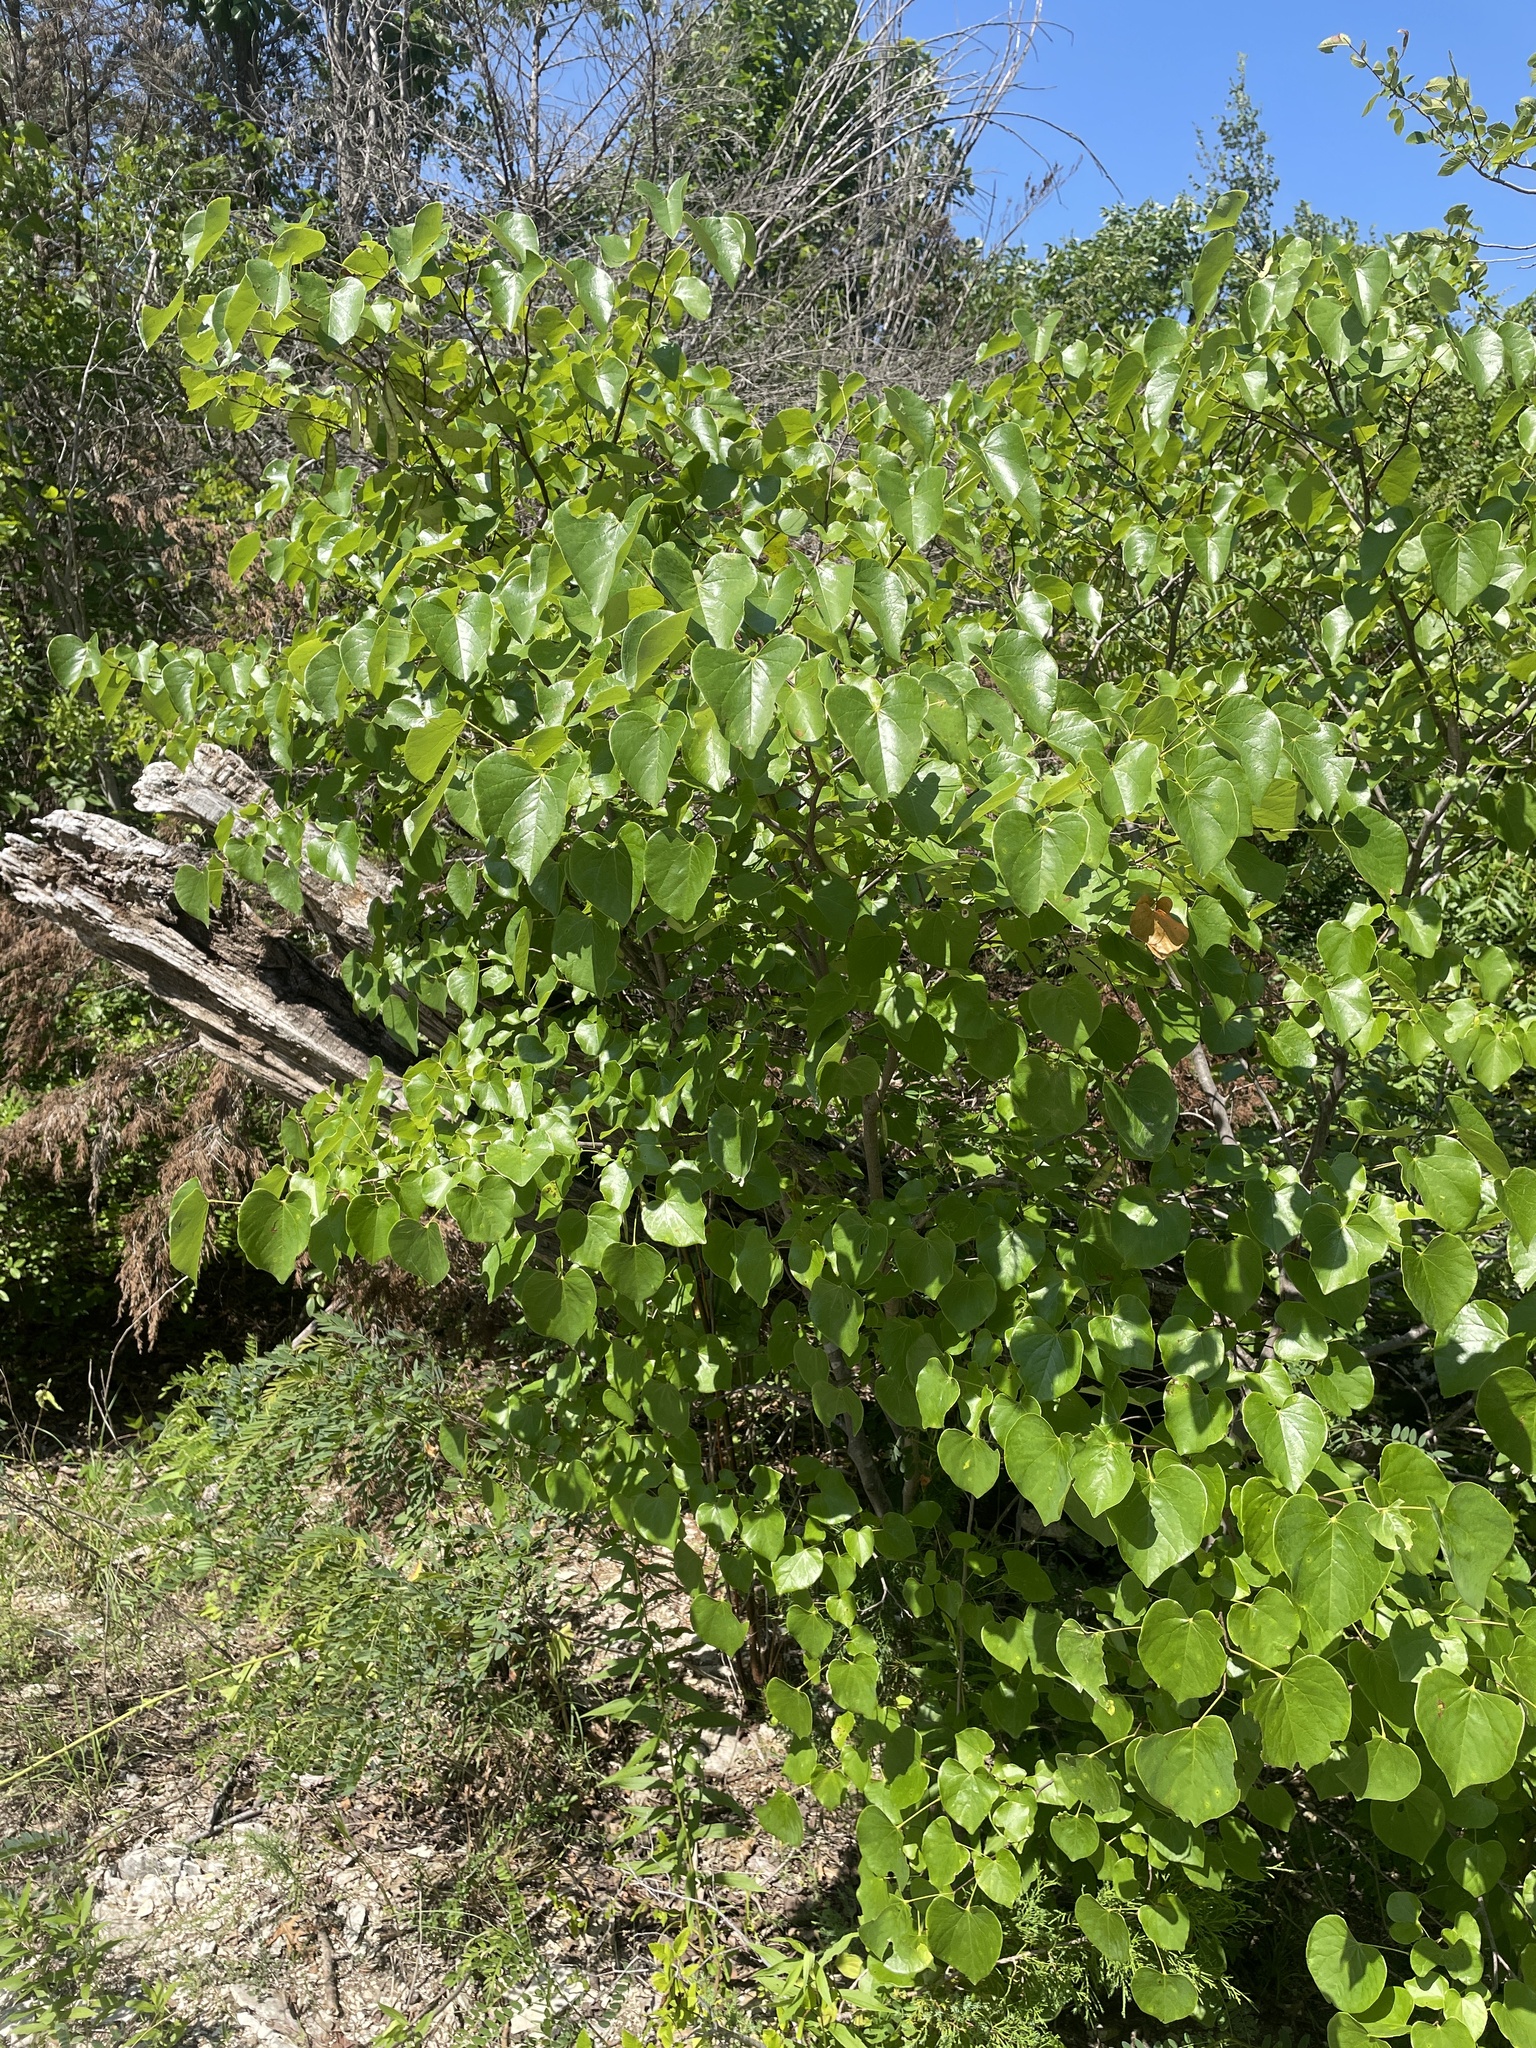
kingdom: Plantae
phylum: Tracheophyta
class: Magnoliopsida
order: Fabales
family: Fabaceae
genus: Cercis
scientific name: Cercis canadensis
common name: Eastern redbud
